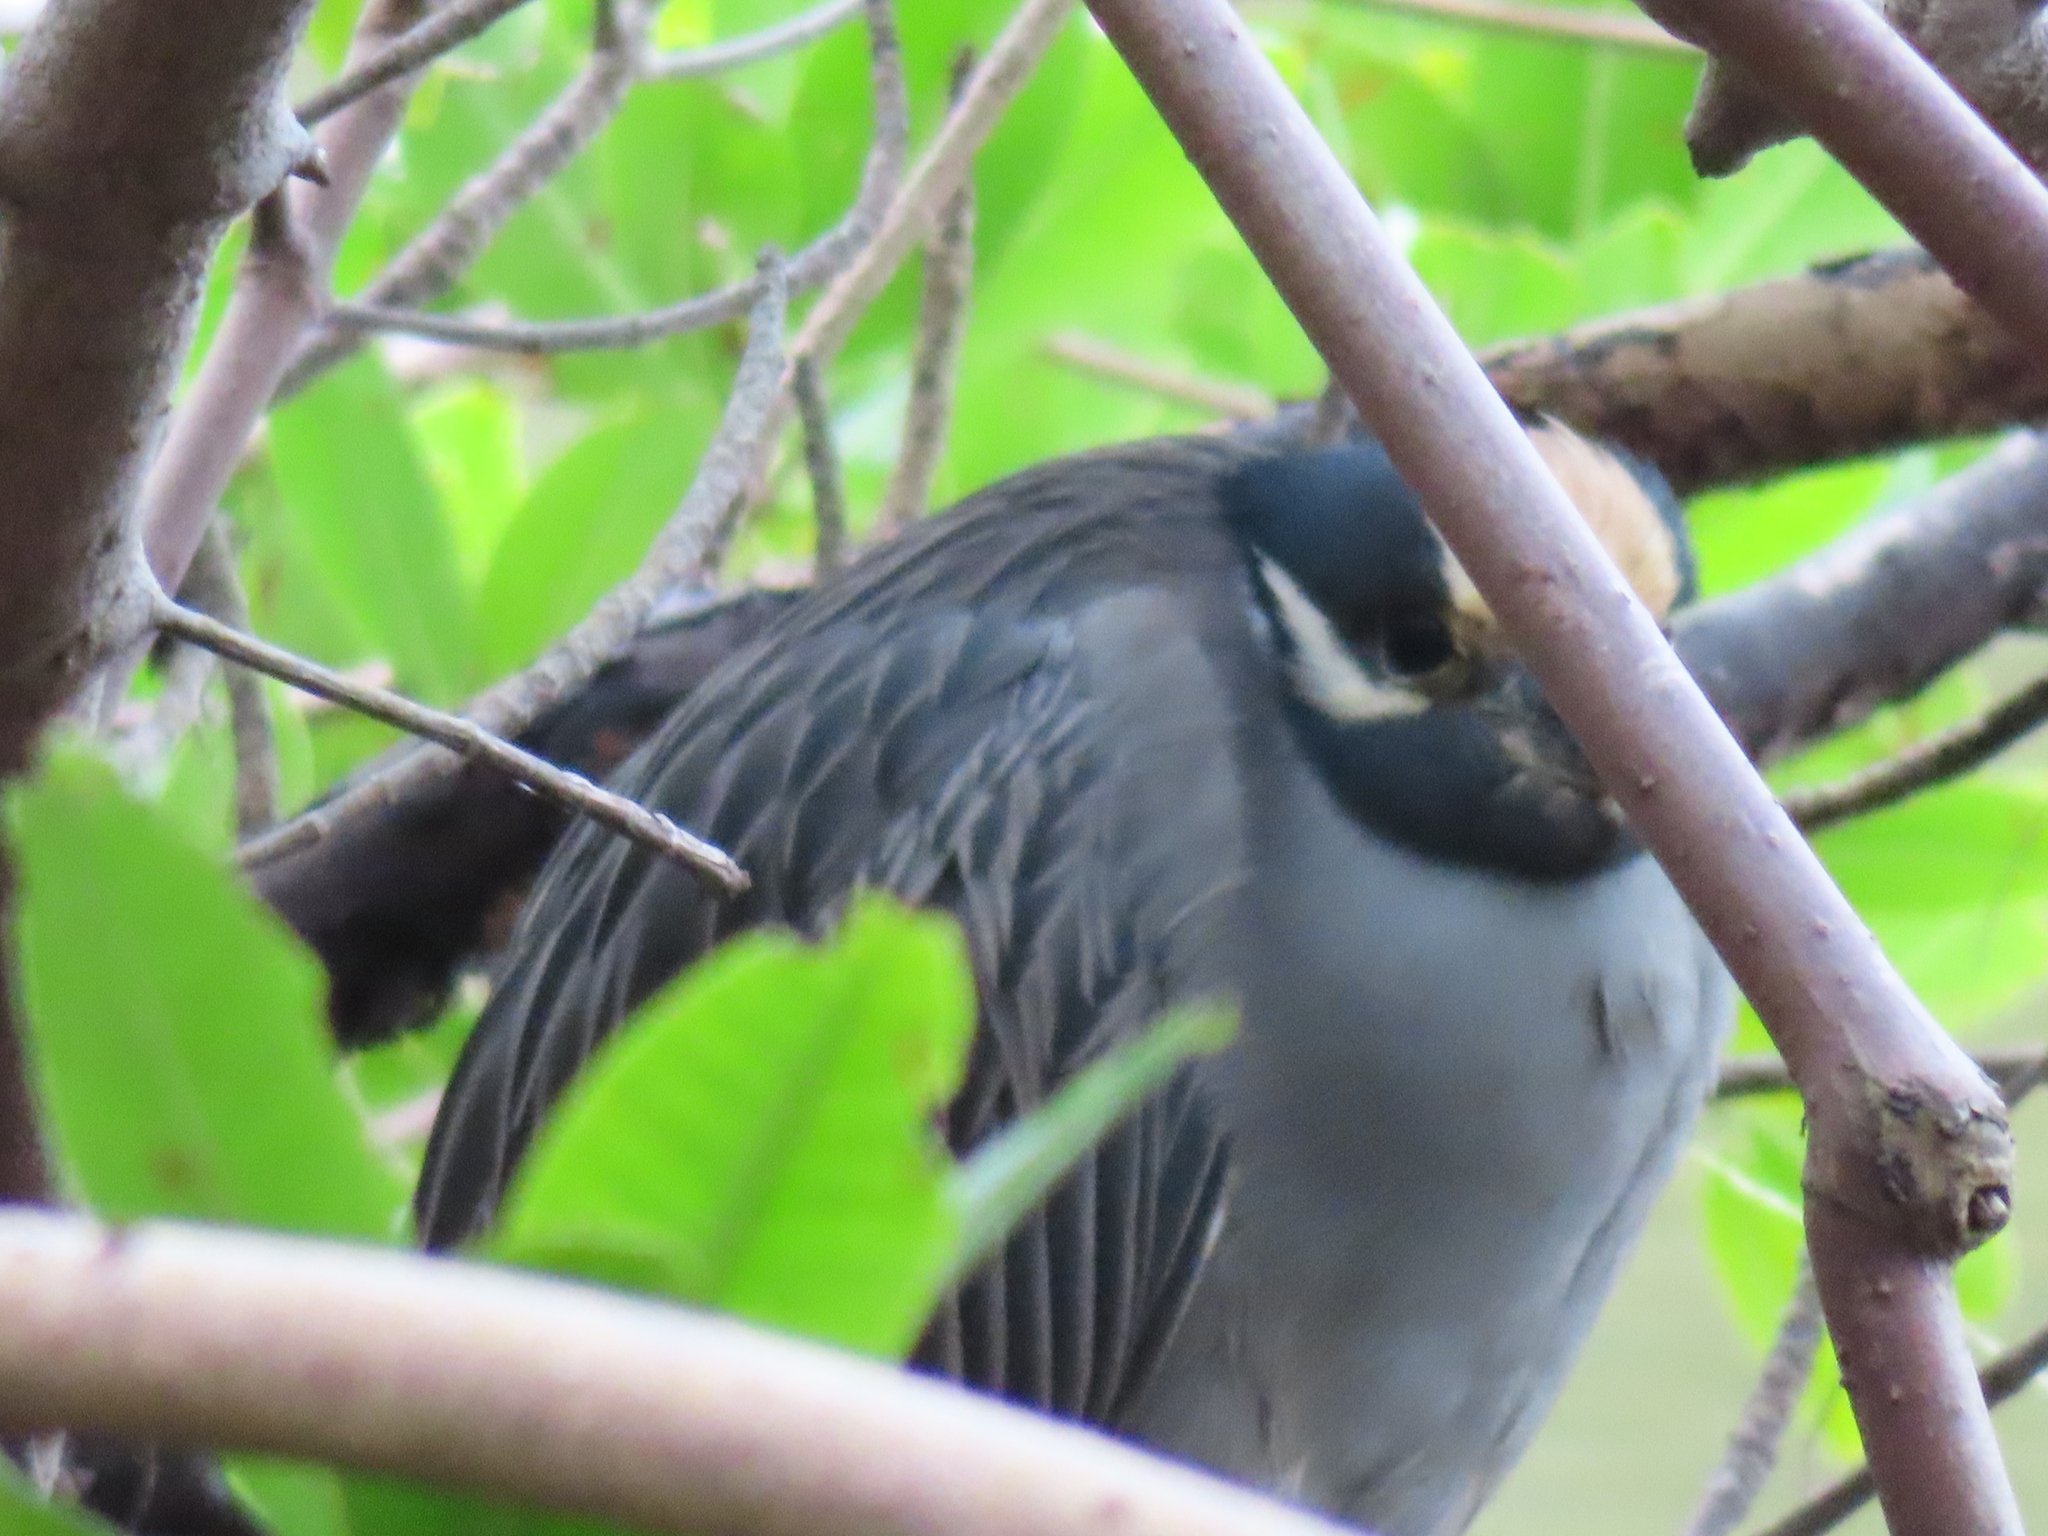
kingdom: Animalia
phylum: Chordata
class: Aves
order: Pelecaniformes
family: Ardeidae
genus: Nyctanassa
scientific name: Nyctanassa violacea
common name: Yellow-crowned night heron
